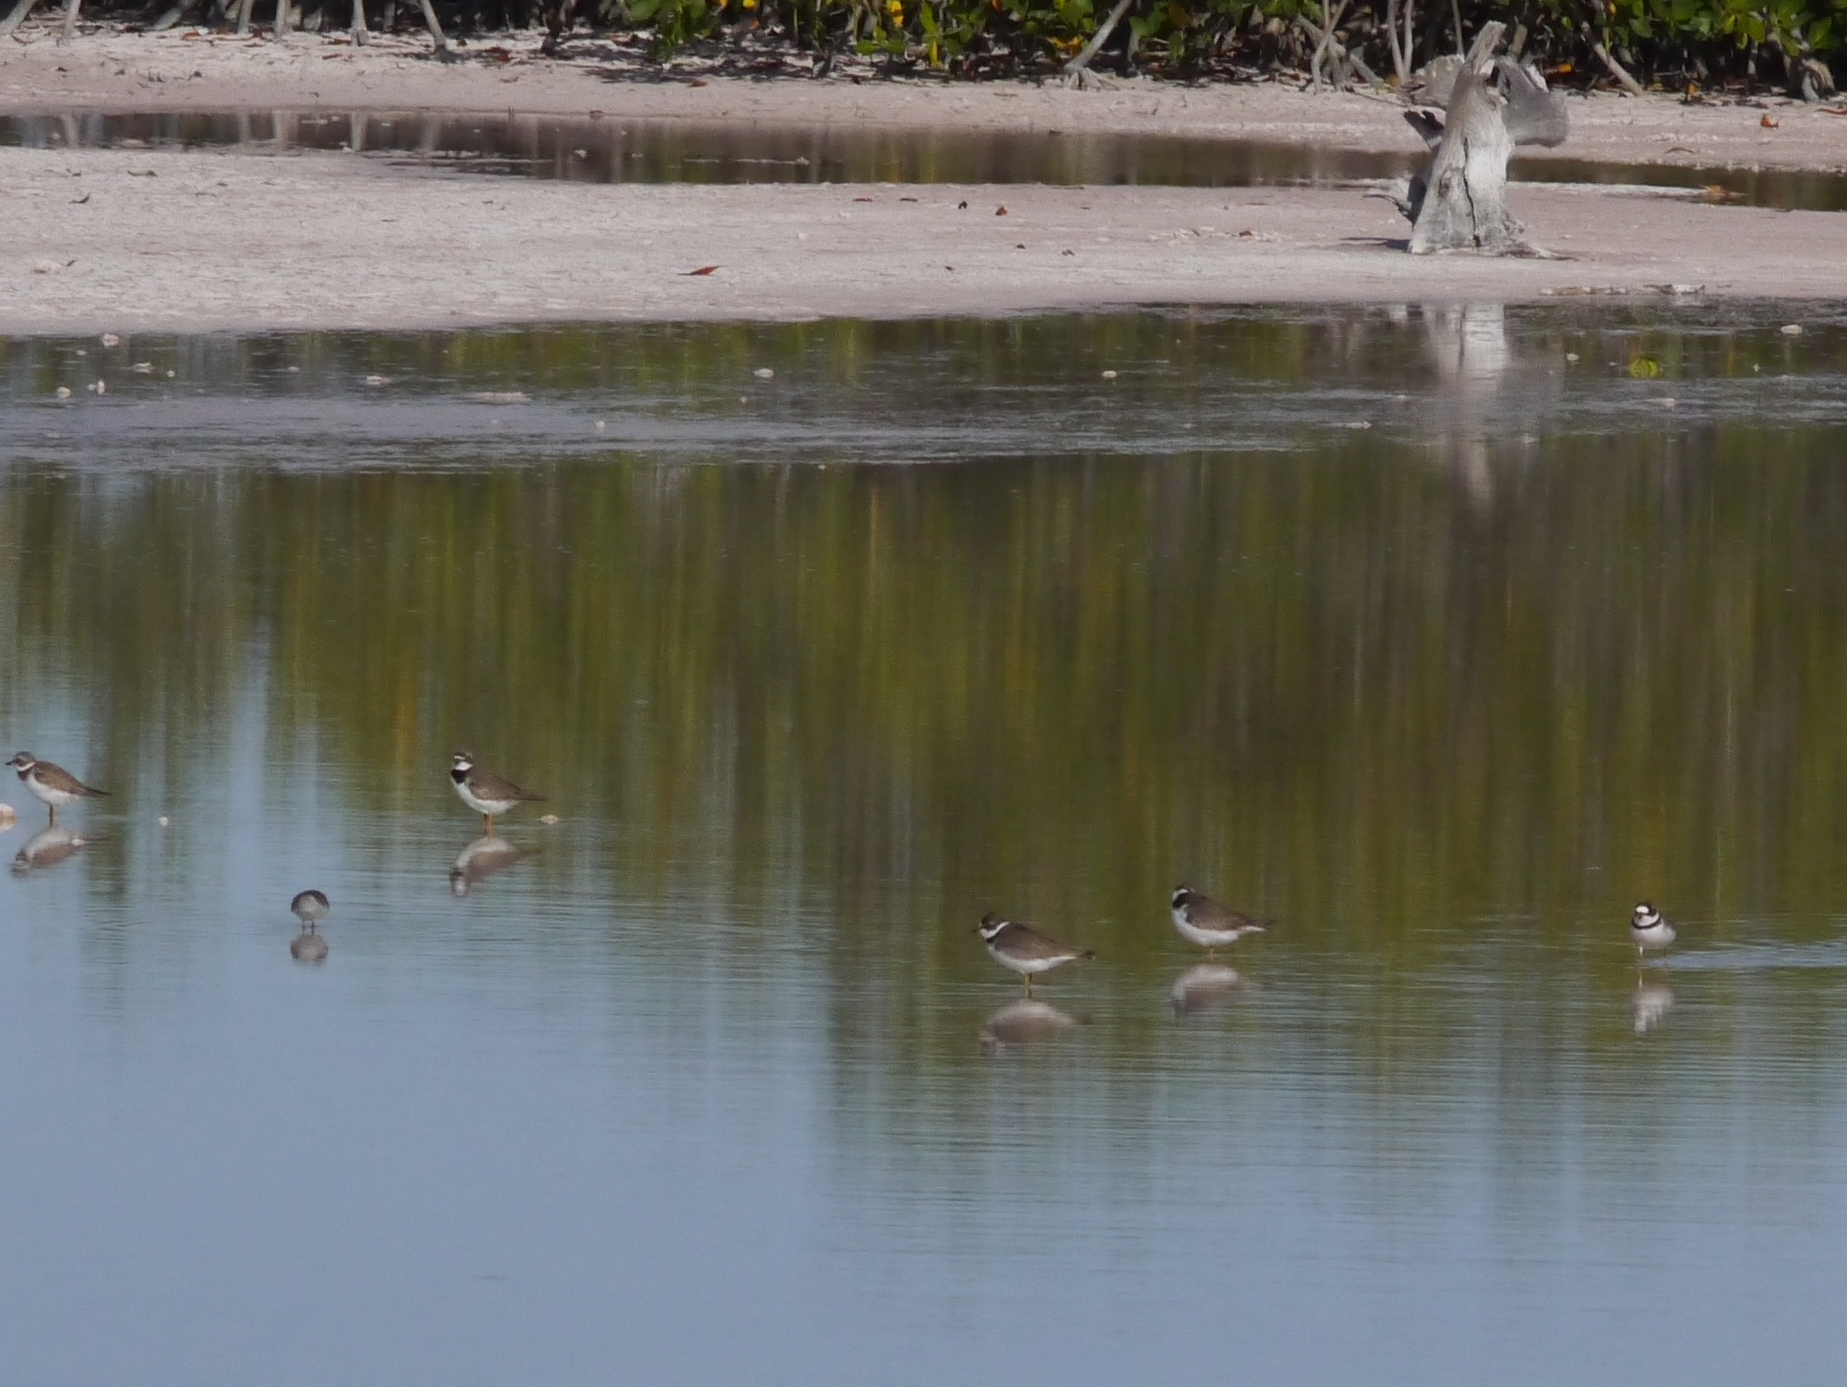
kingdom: Animalia
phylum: Chordata
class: Aves
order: Charadriiformes
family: Charadriidae
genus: Charadrius
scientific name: Charadrius semipalmatus
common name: Semipalmated plover
